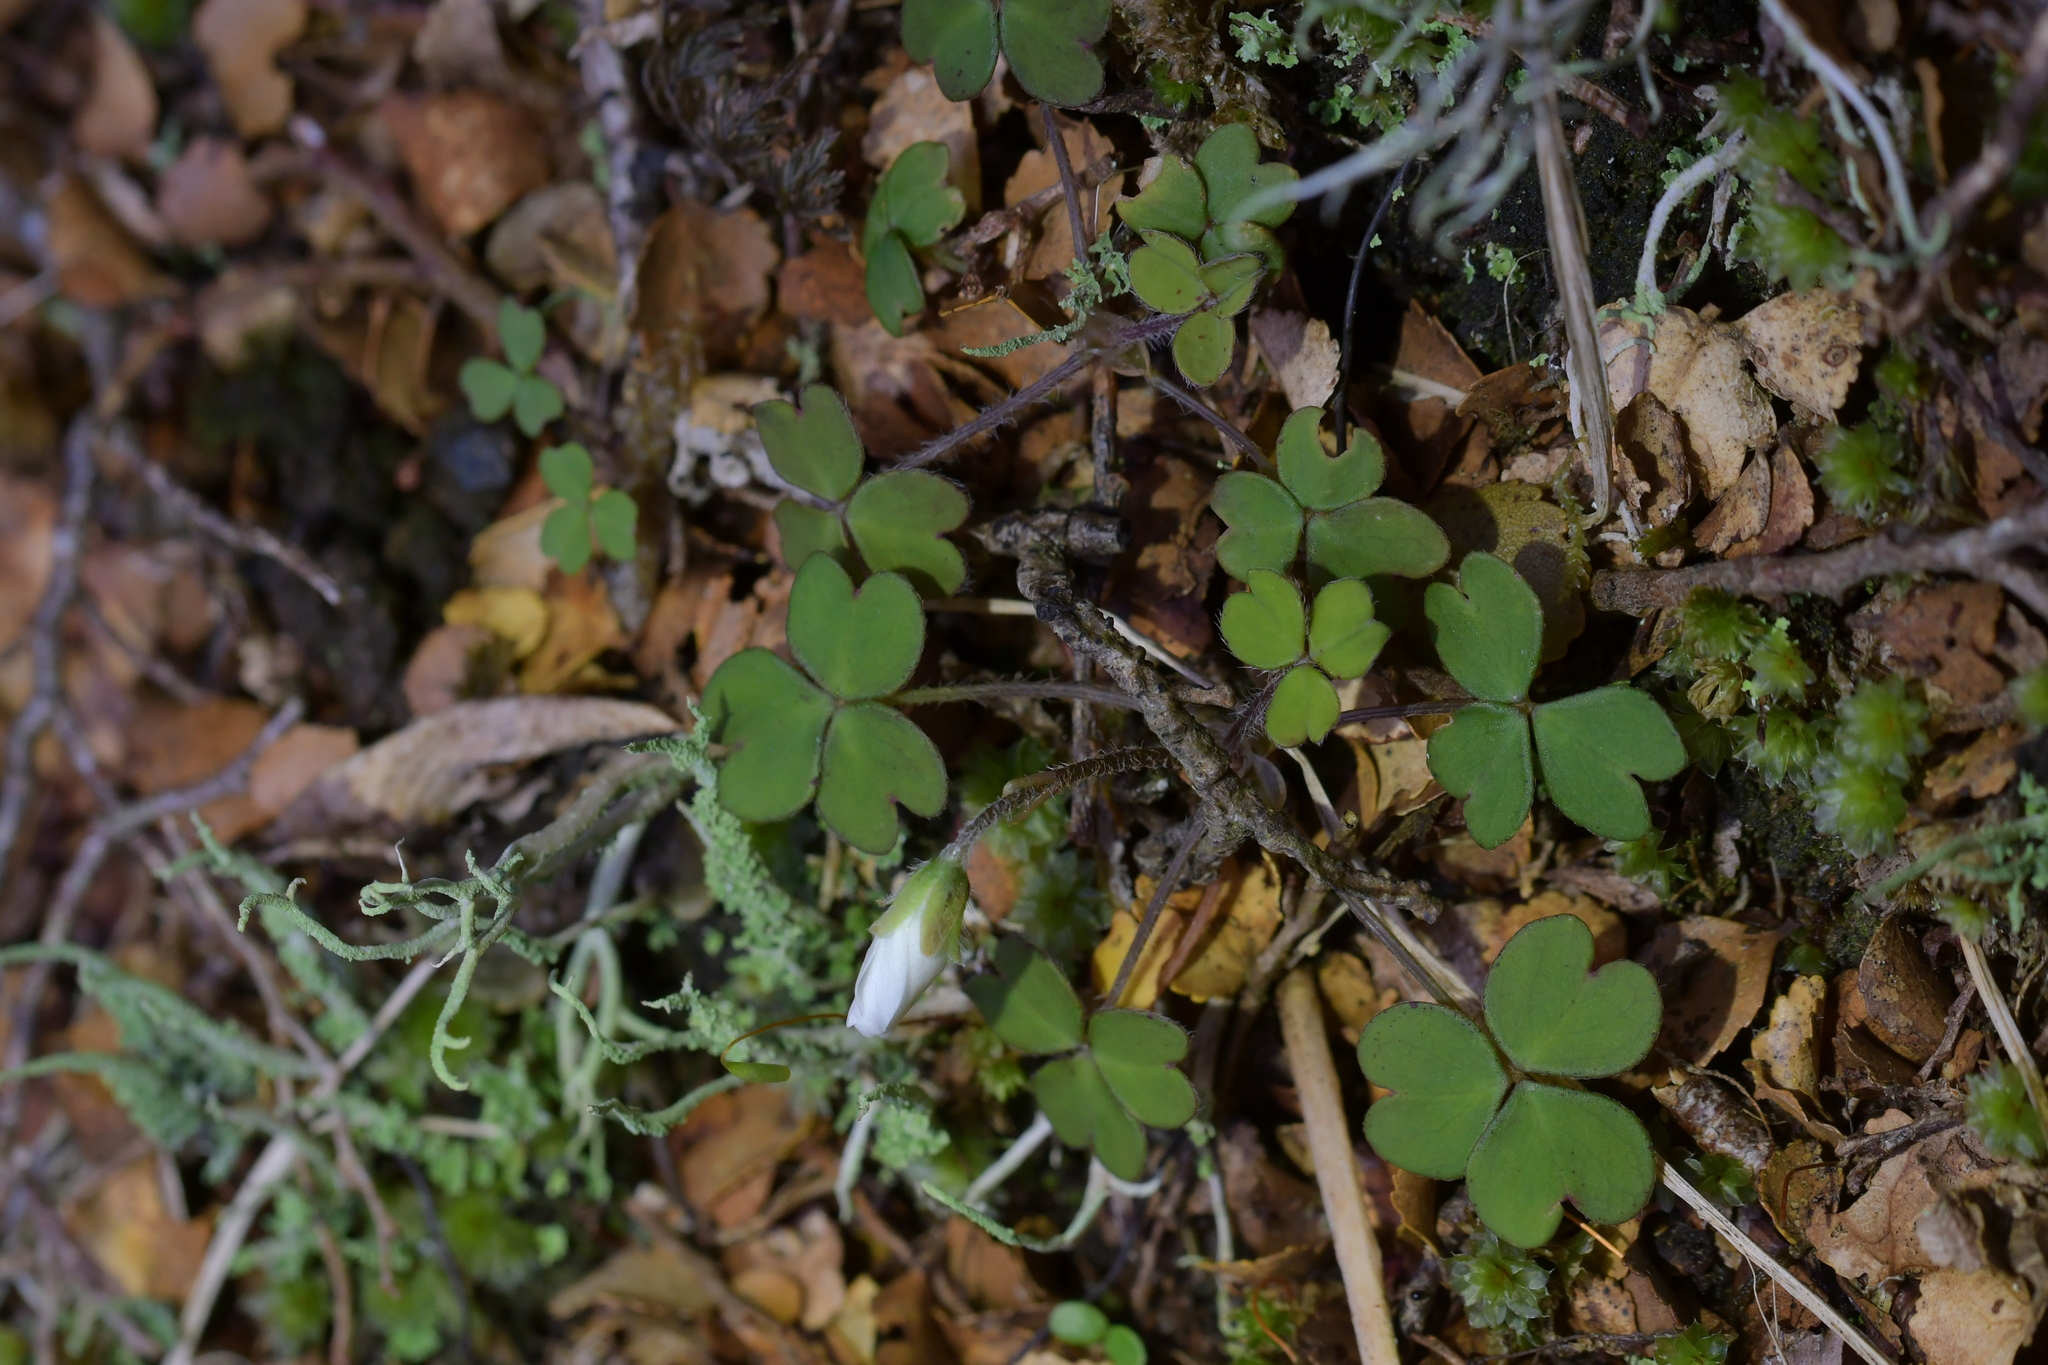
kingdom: Plantae
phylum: Tracheophyta
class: Magnoliopsida
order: Oxalidales
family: Oxalidaceae
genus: Oxalis
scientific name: Oxalis magellanica
